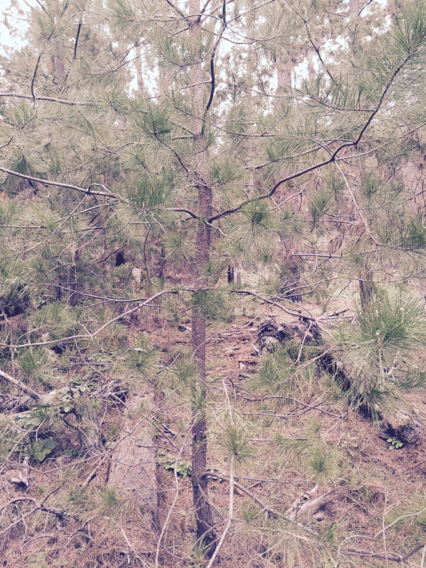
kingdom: Plantae
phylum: Tracheophyta
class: Pinopsida
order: Pinales
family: Pinaceae
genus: Pinus
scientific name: Pinus radiata
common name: Monterey pine
